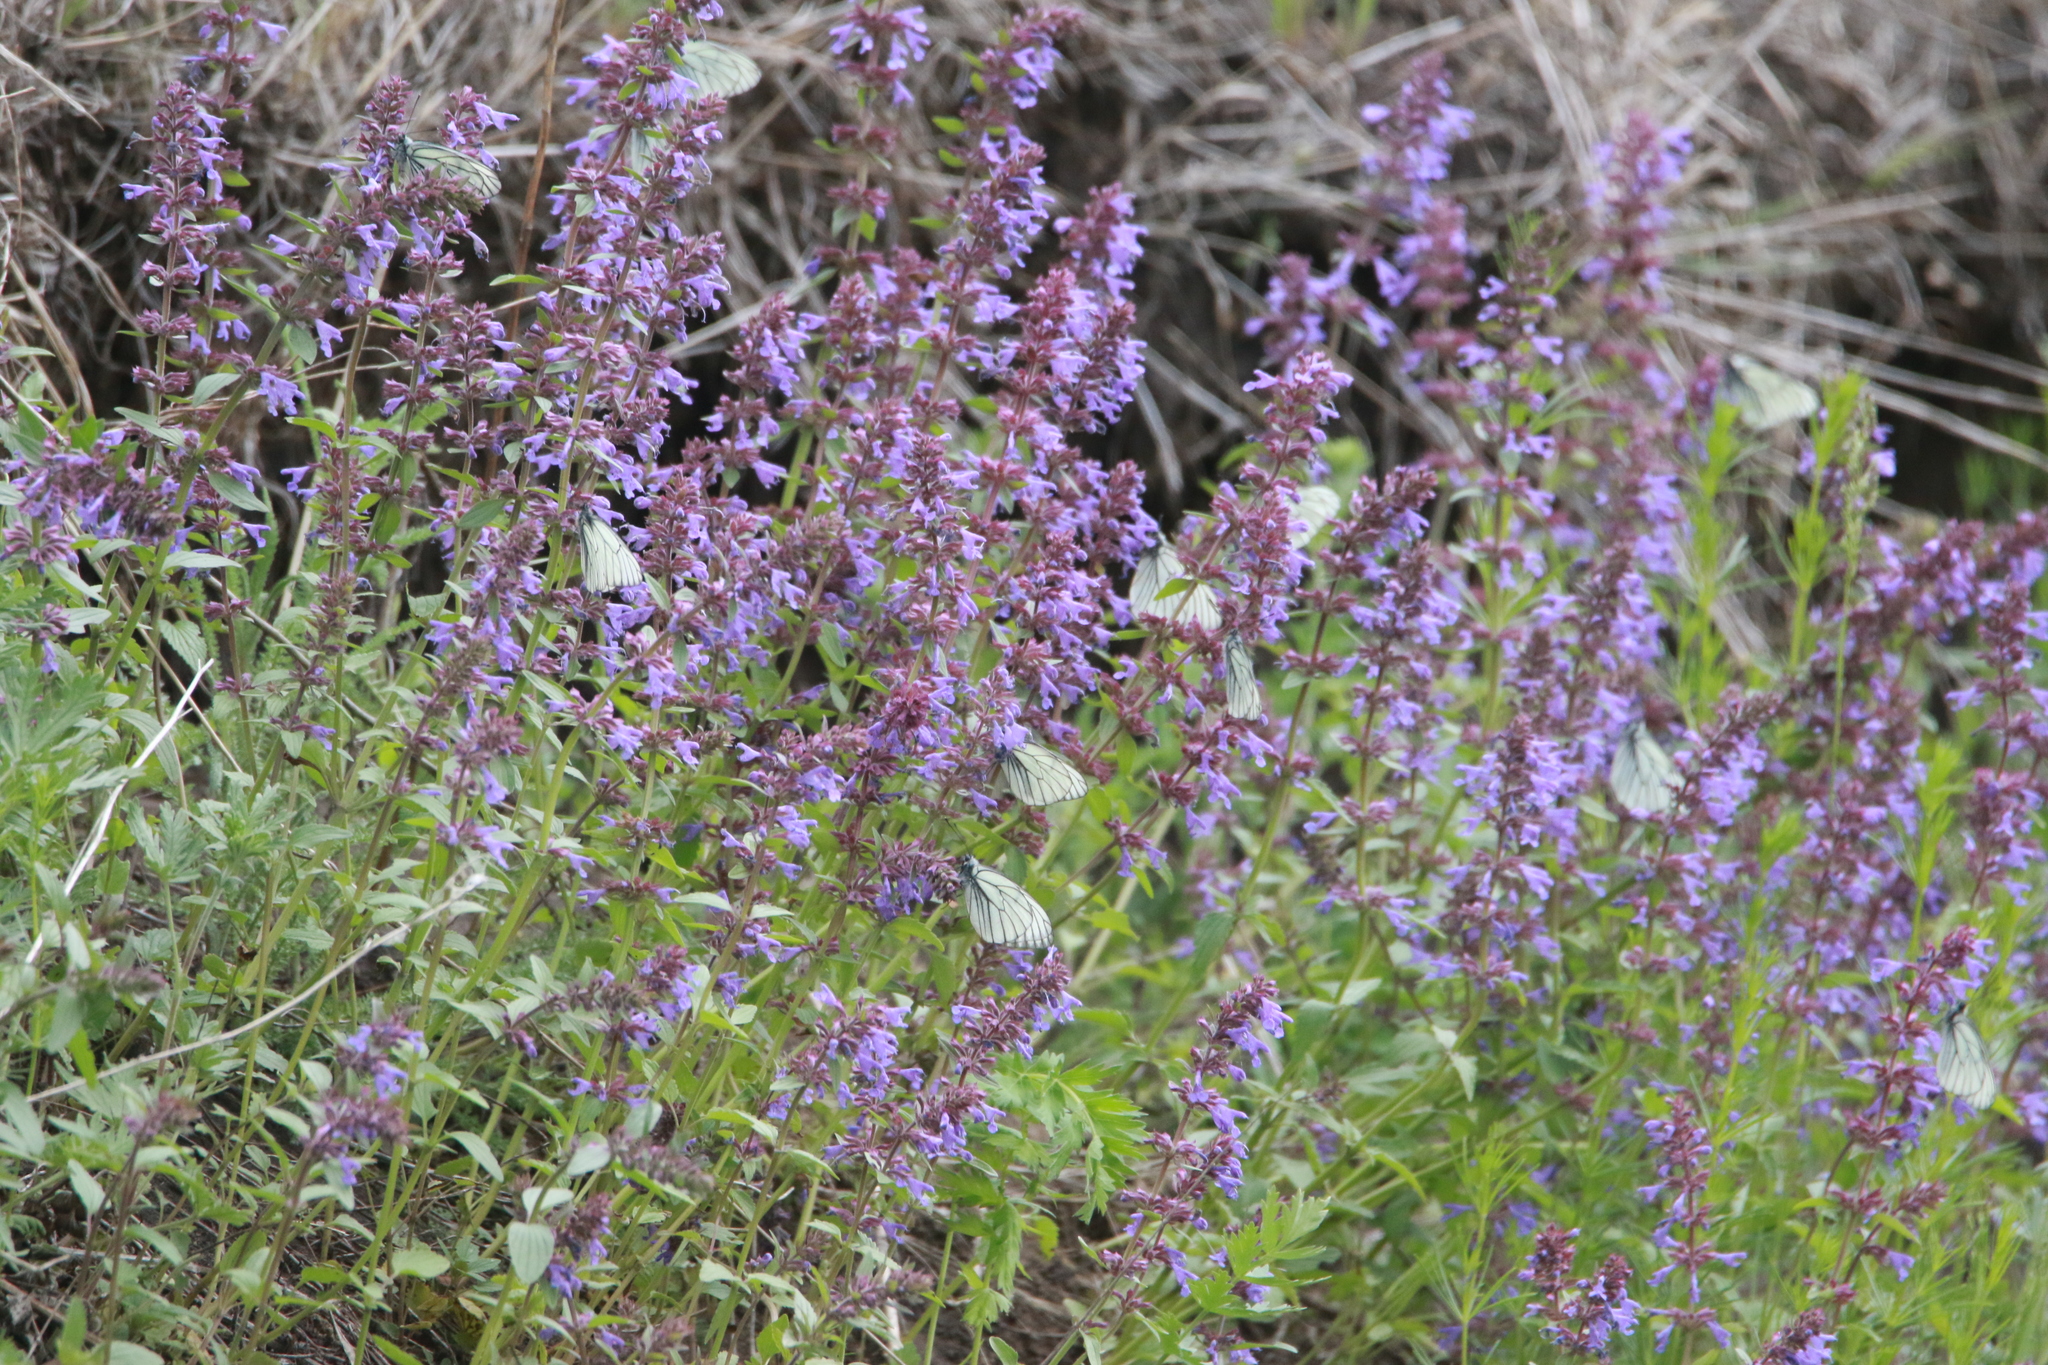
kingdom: Plantae
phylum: Tracheophyta
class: Magnoliopsida
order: Lamiales
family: Lamiaceae
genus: Dracocephalum
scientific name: Dracocephalum nutans
